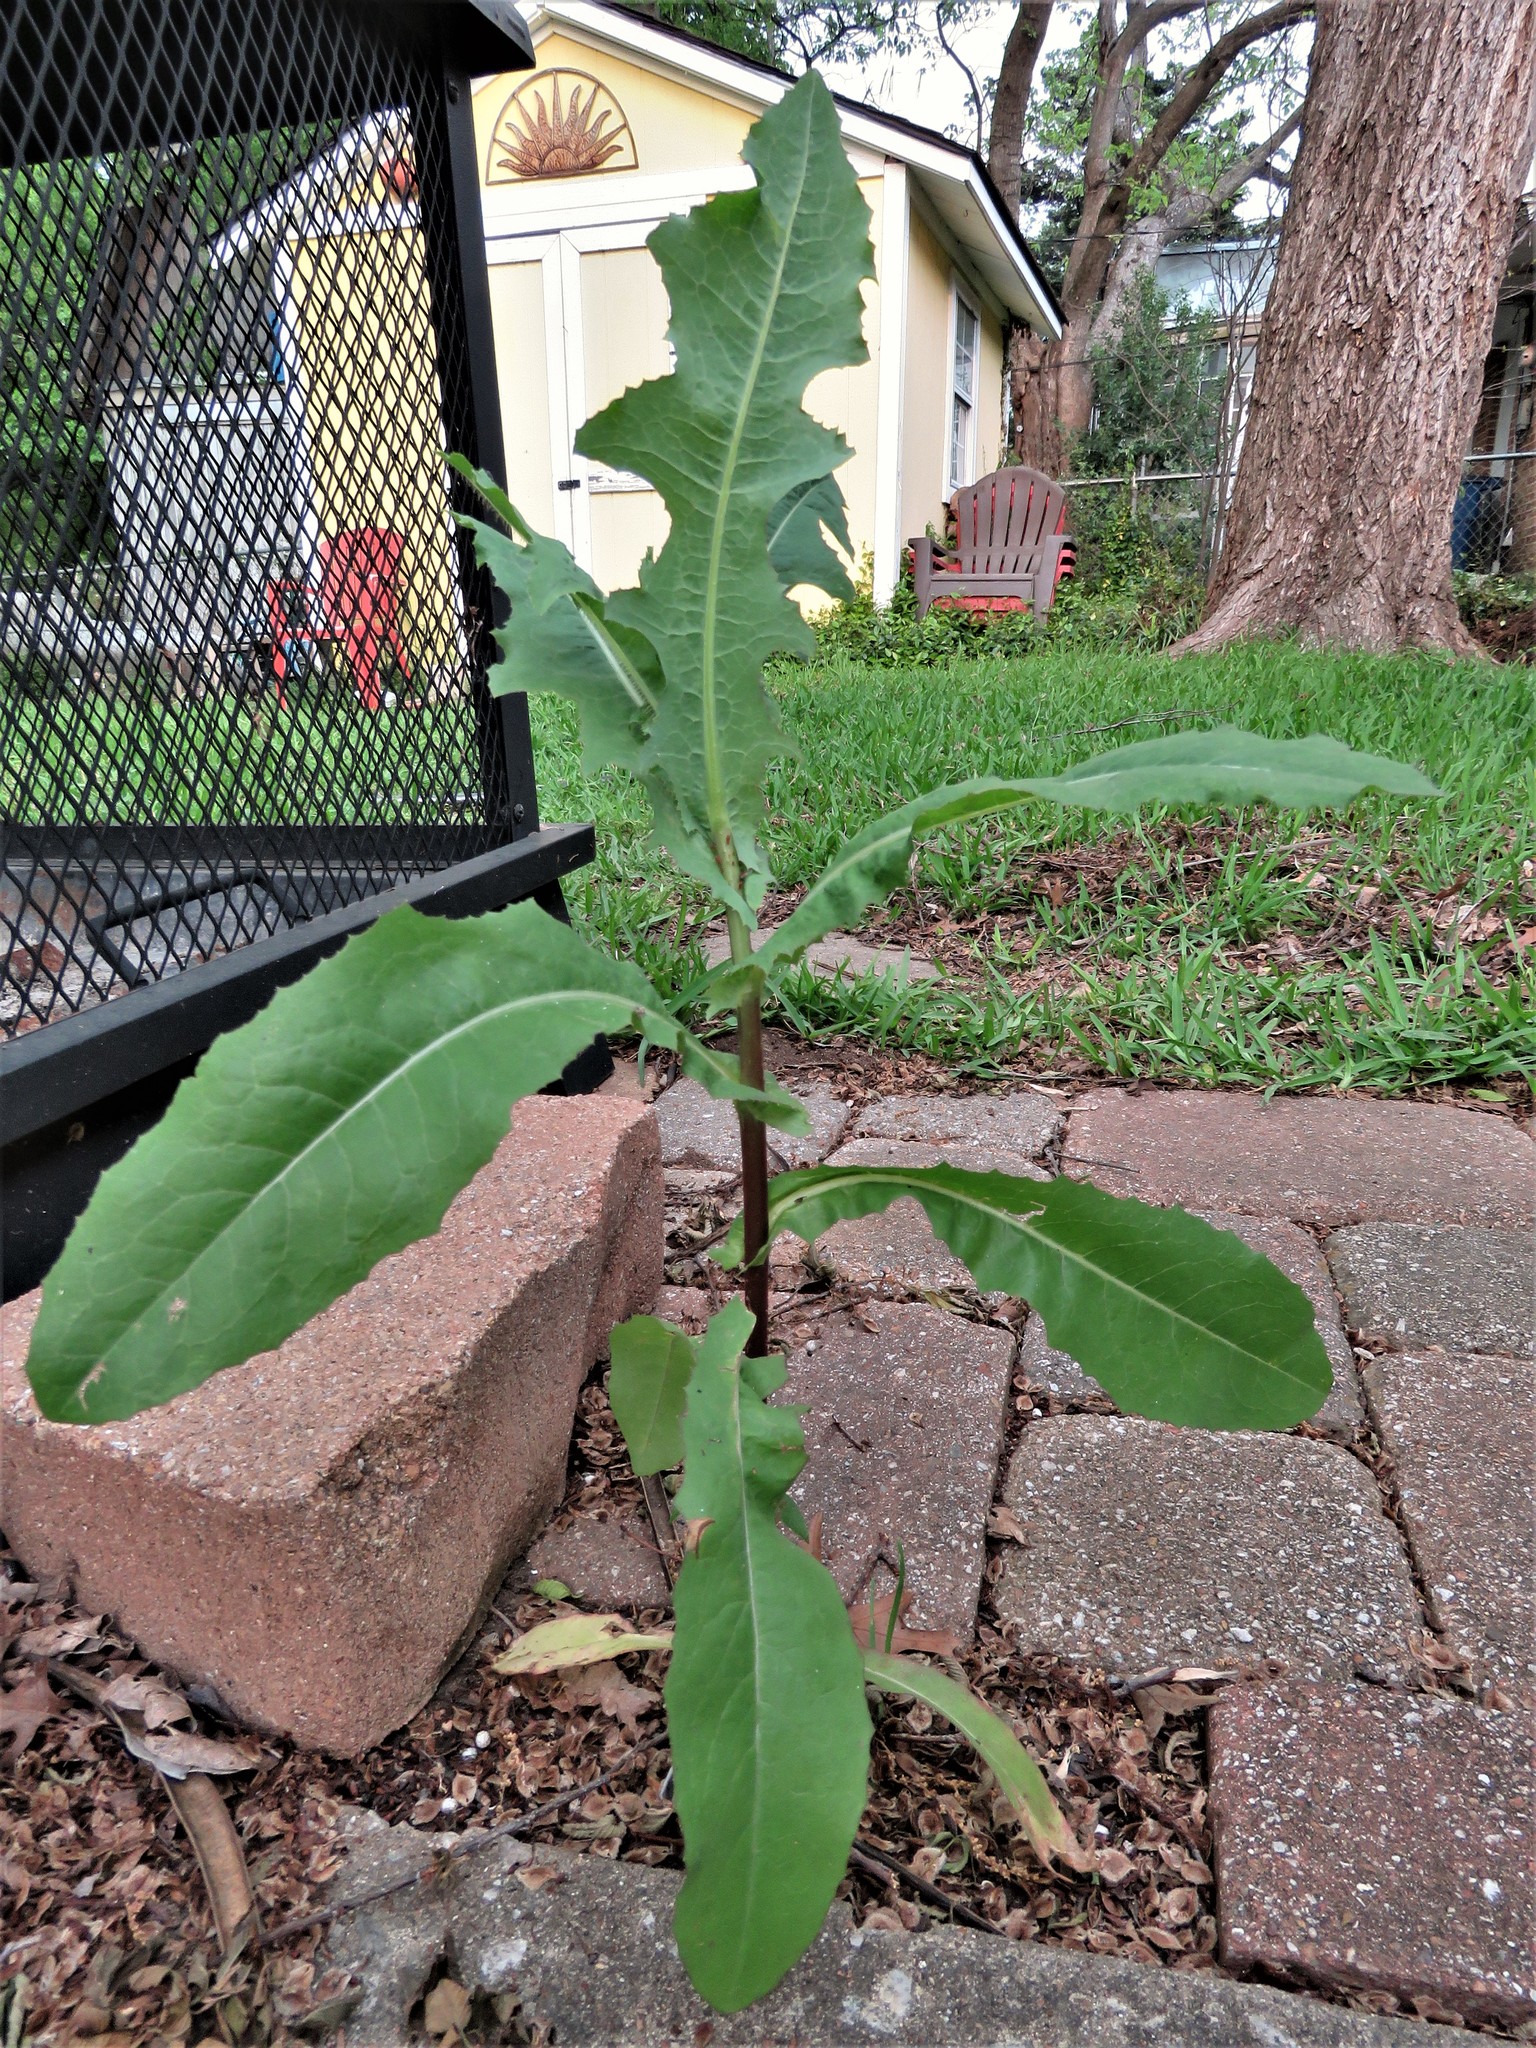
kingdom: Plantae
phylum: Tracheophyta
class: Magnoliopsida
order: Asterales
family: Asteraceae
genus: Sonchus
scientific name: Sonchus oleraceus
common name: Common sowthistle
